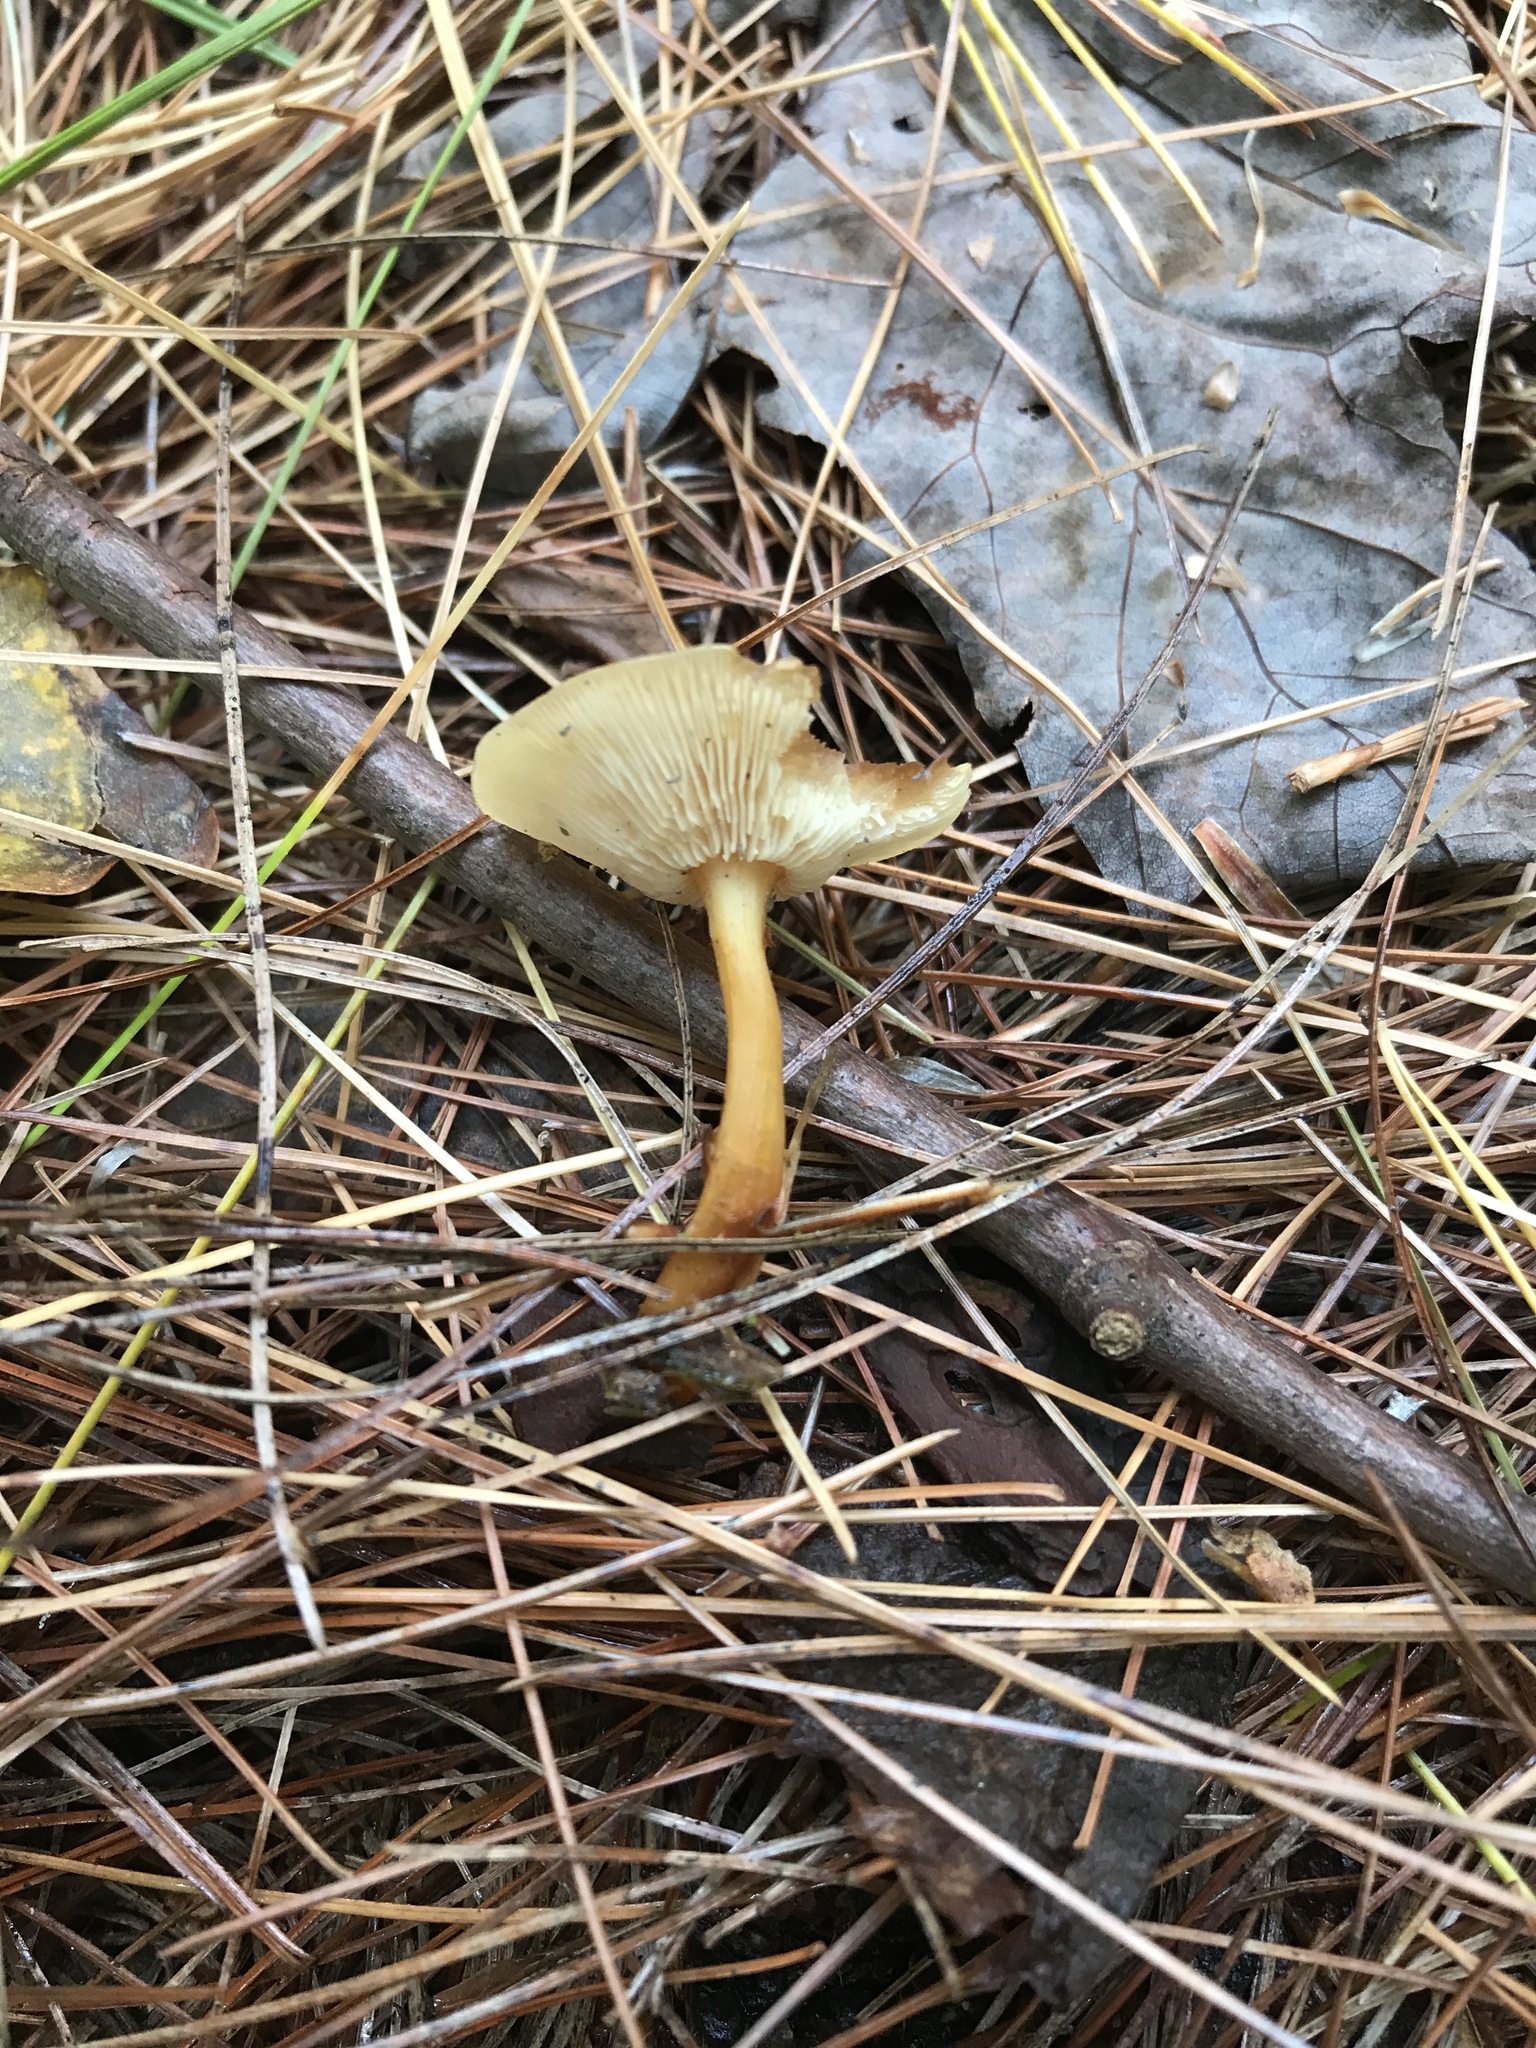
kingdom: Fungi
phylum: Basidiomycota
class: Agaricomycetes
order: Agaricales
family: Omphalotaceae
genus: Gymnopus
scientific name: Gymnopus dryophilus
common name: Penny top
